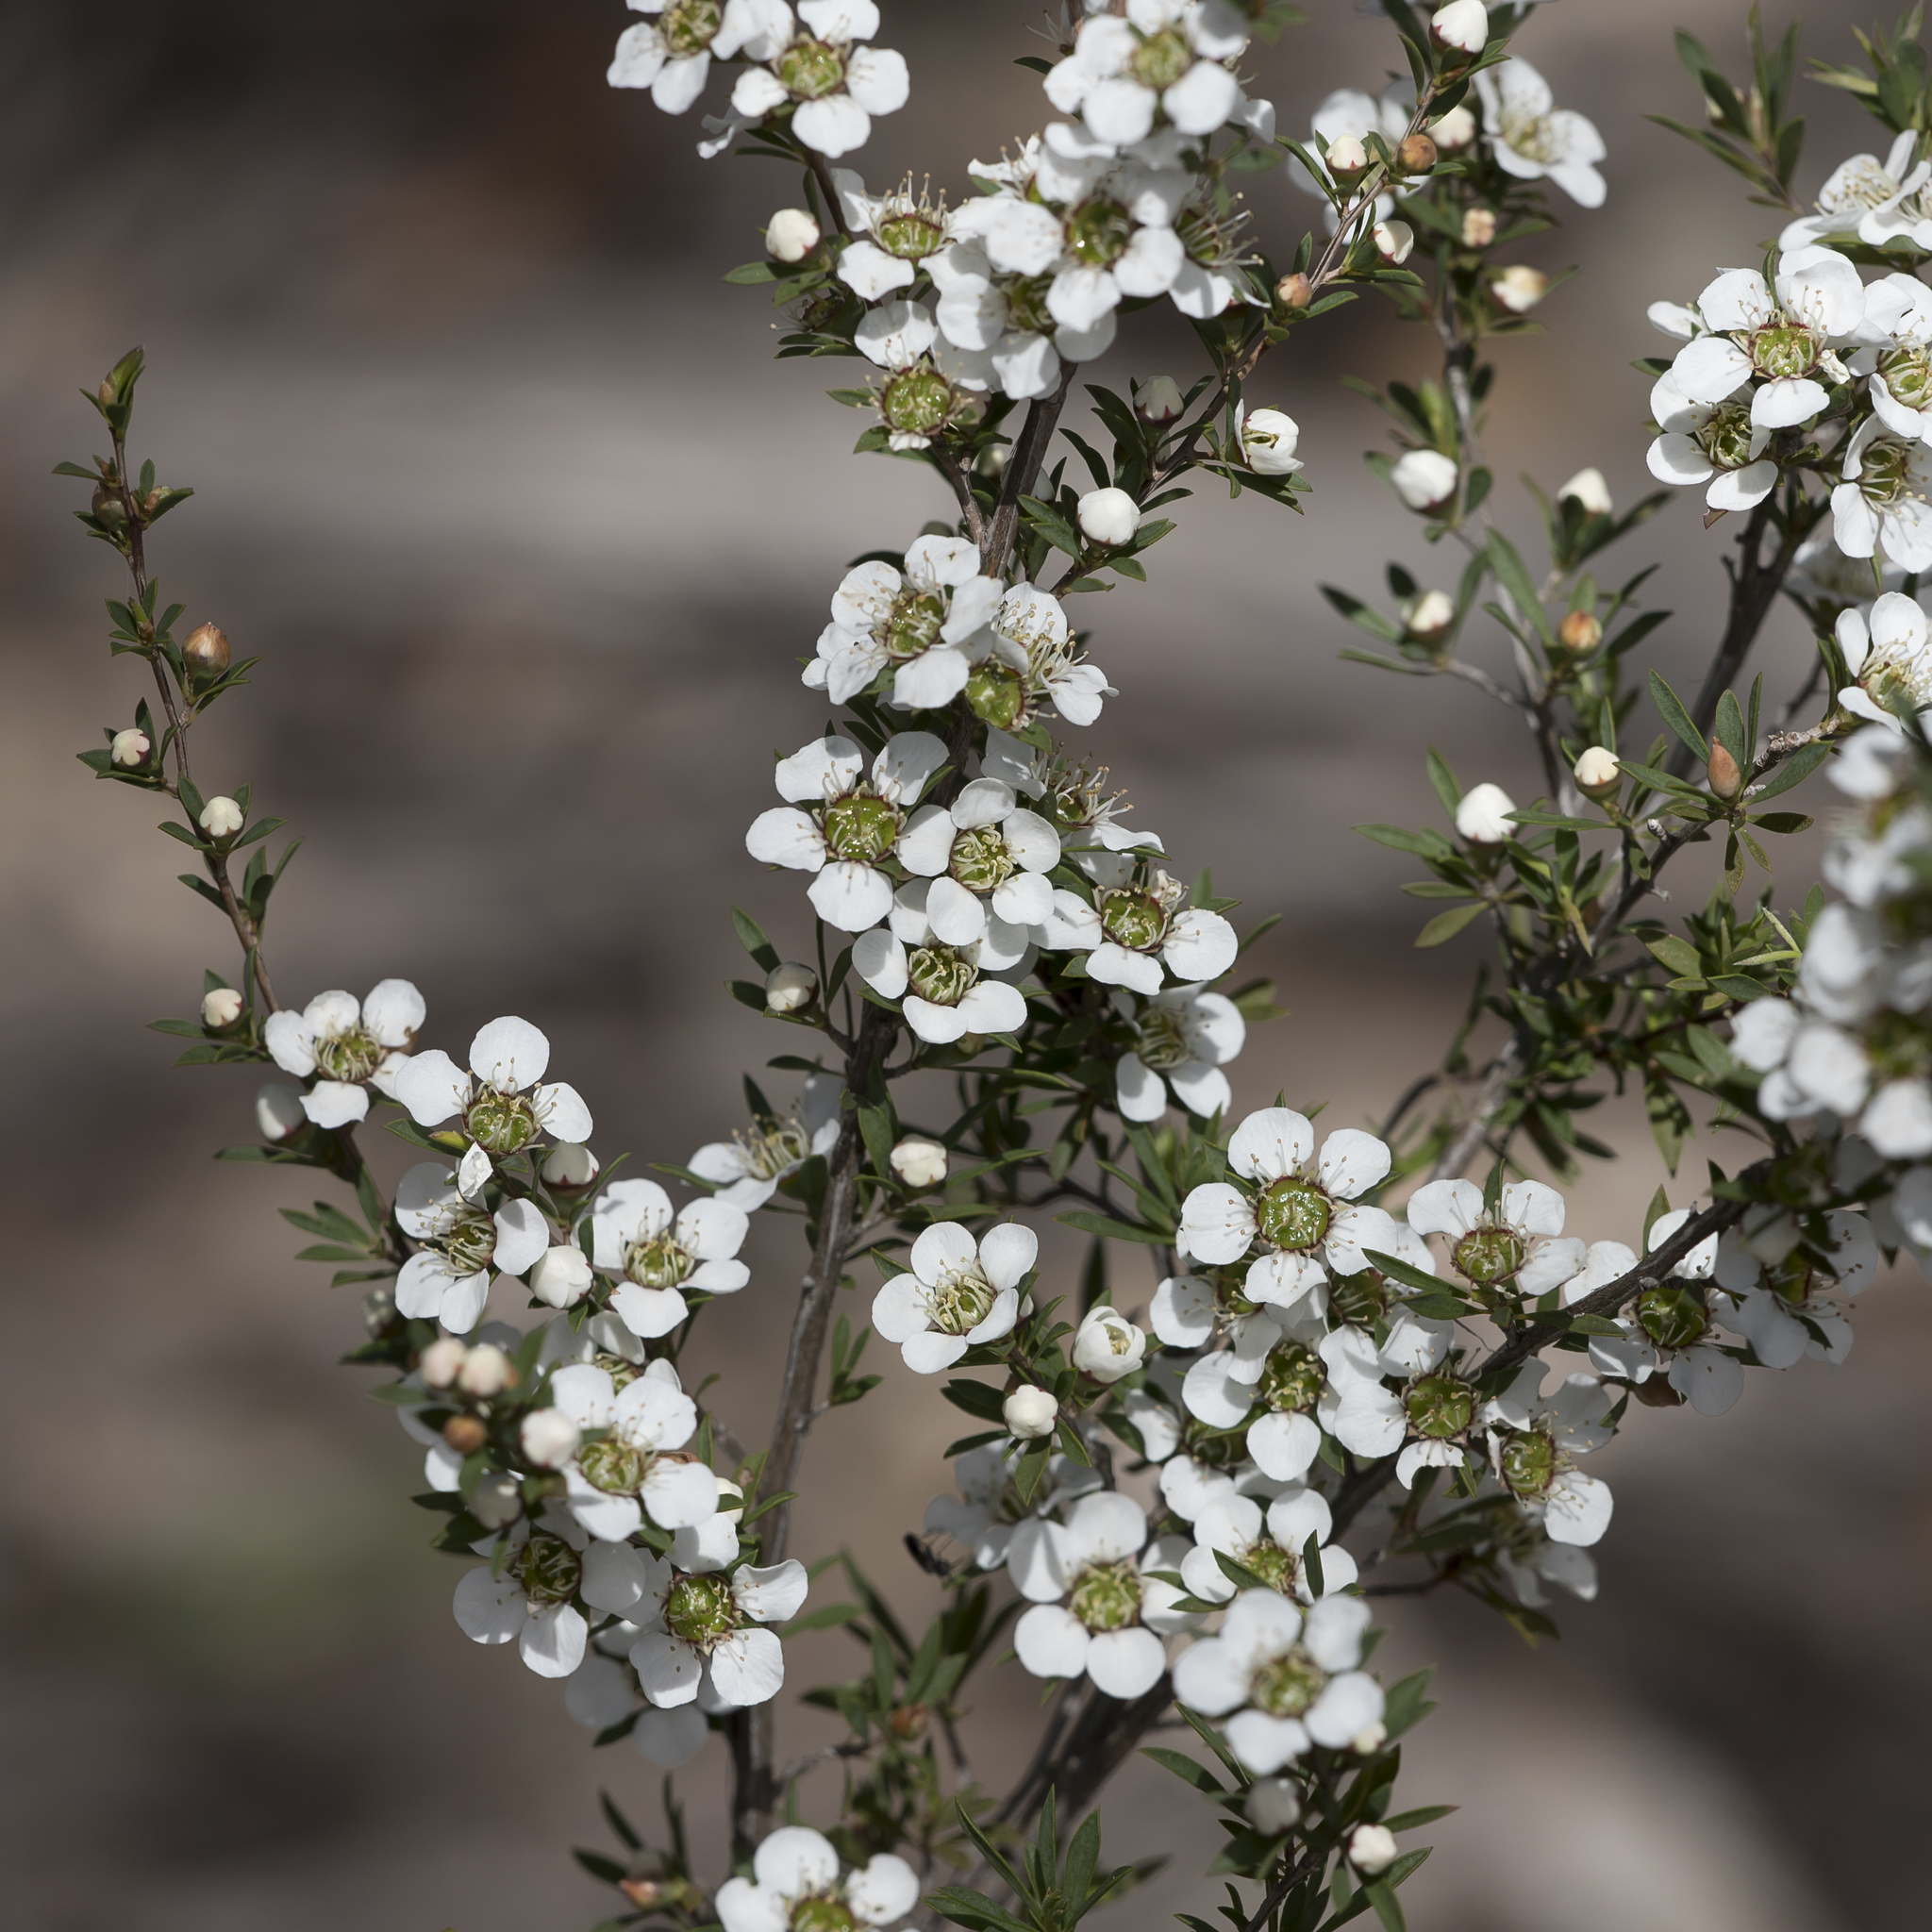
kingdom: Plantae
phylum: Tracheophyta
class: Magnoliopsida
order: Myrtales
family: Myrtaceae
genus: Leptospermum
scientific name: Leptospermum myrsinoides
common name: Heath teatree
